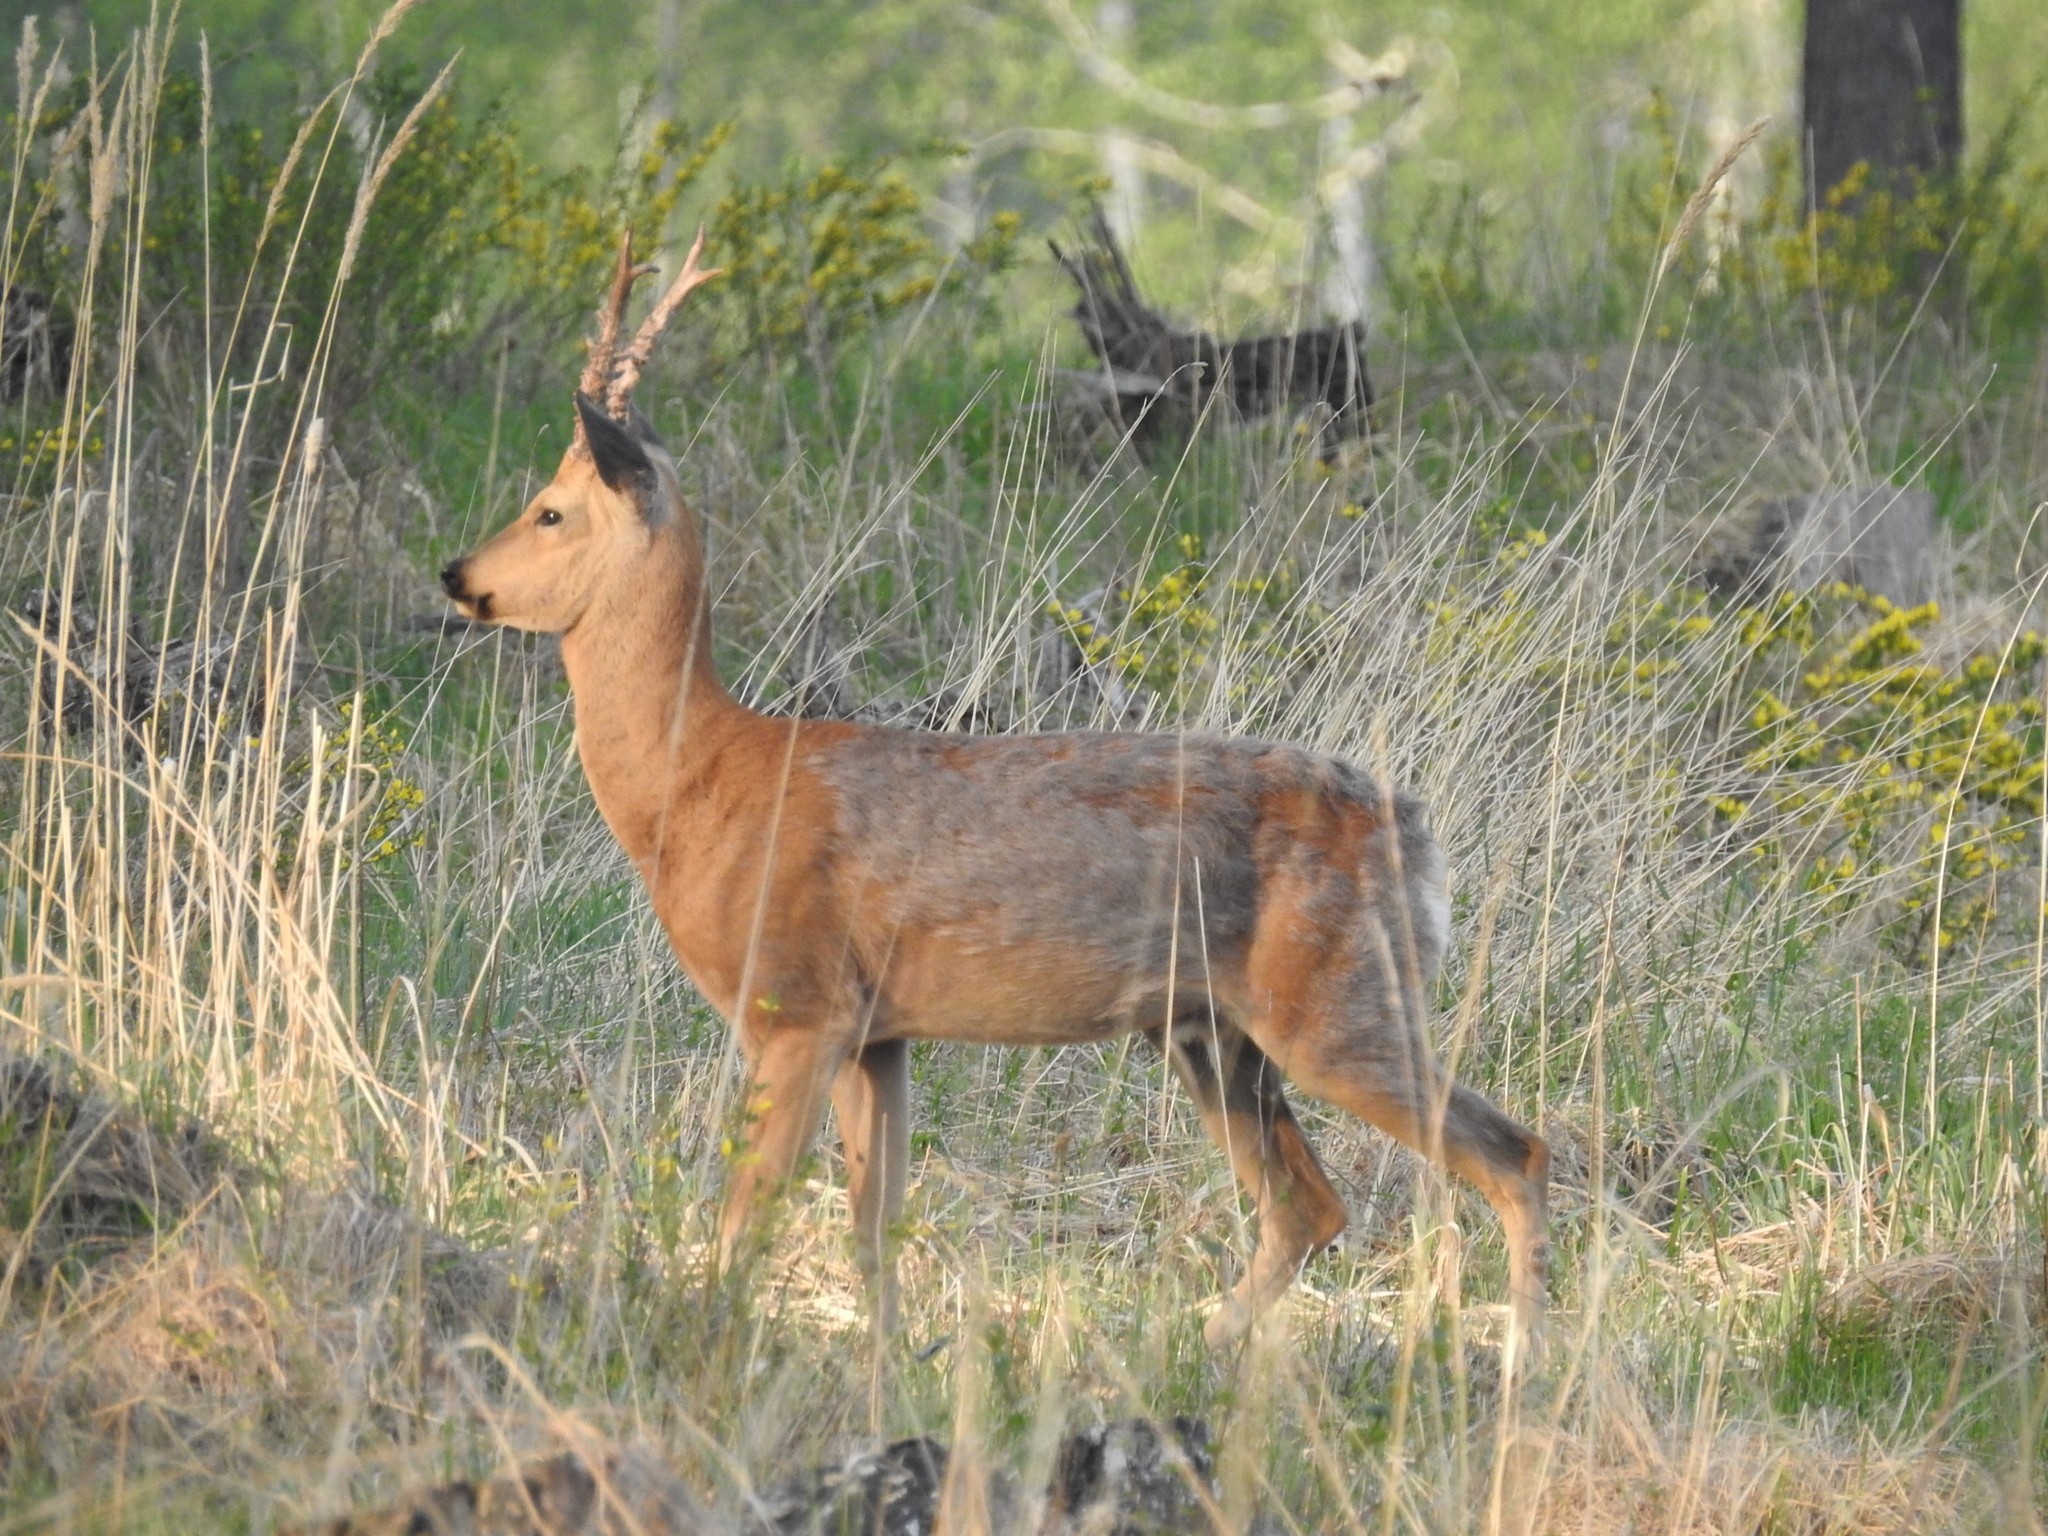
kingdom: Animalia
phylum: Chordata
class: Mammalia
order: Artiodactyla
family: Cervidae
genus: Capreolus
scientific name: Capreolus pygargus
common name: Siberian roe
